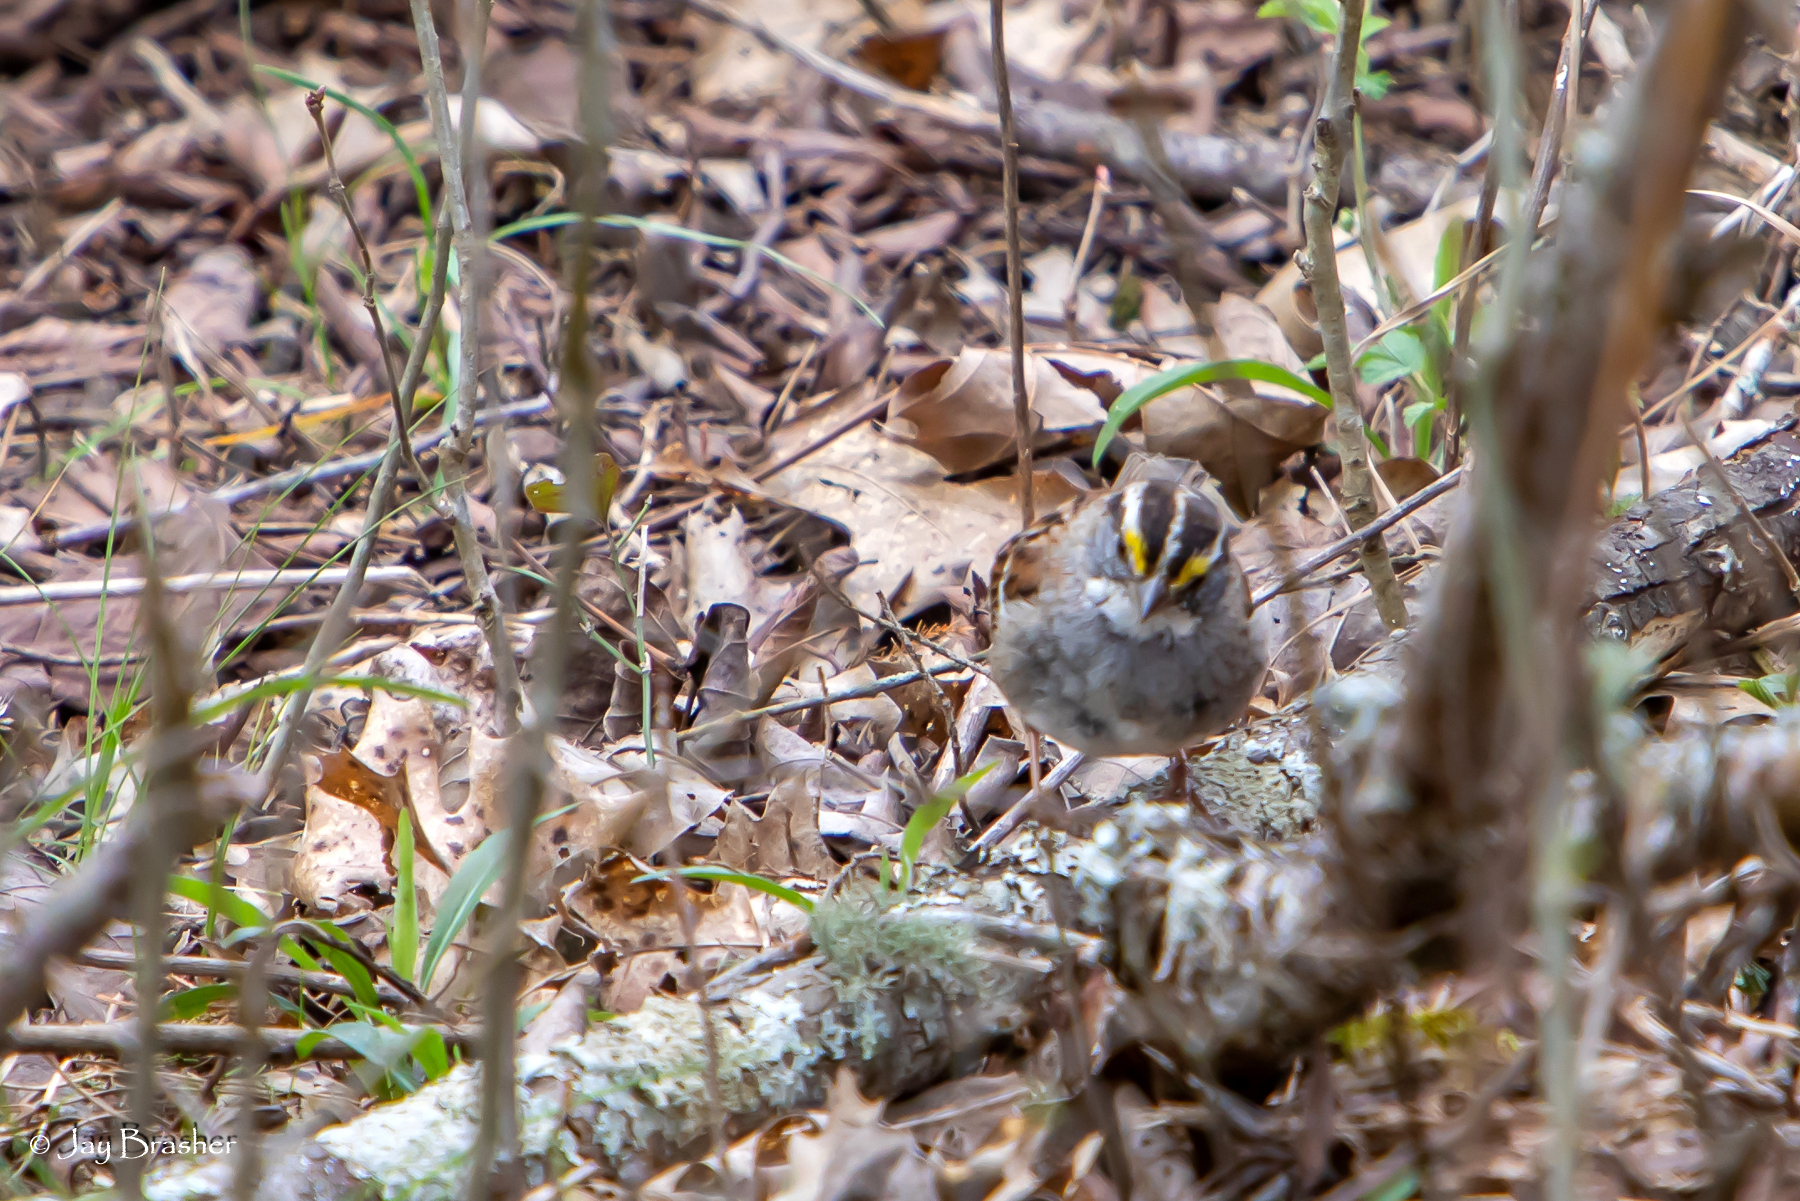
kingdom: Animalia
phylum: Chordata
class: Aves
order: Passeriformes
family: Passerellidae
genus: Zonotrichia
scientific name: Zonotrichia albicollis
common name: White-throated sparrow
